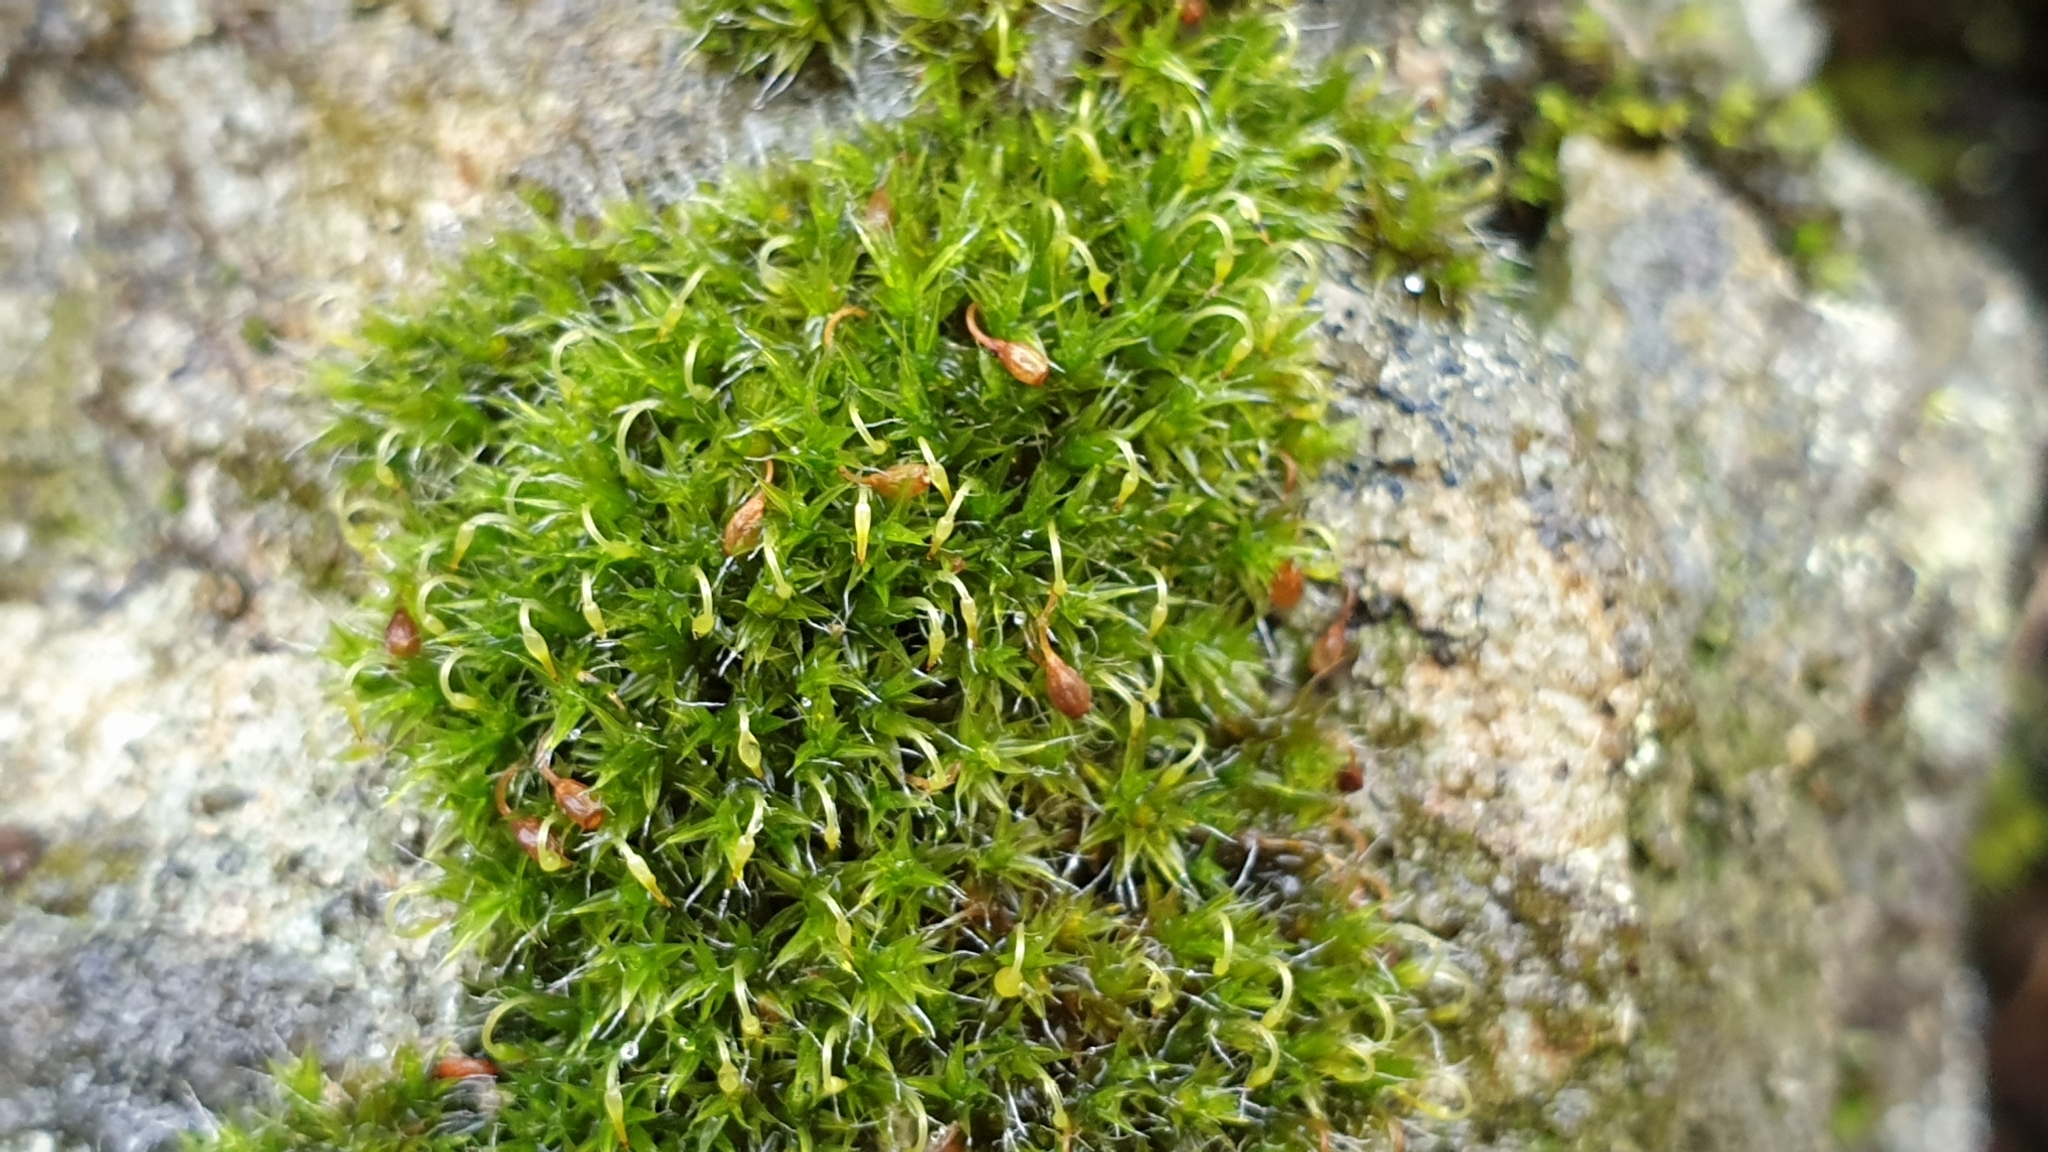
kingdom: Plantae
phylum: Bryophyta
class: Bryopsida
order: Grimmiales
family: Grimmiaceae
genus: Grimmia
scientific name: Grimmia pulvinata
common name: Grey-cushioned grimmia
